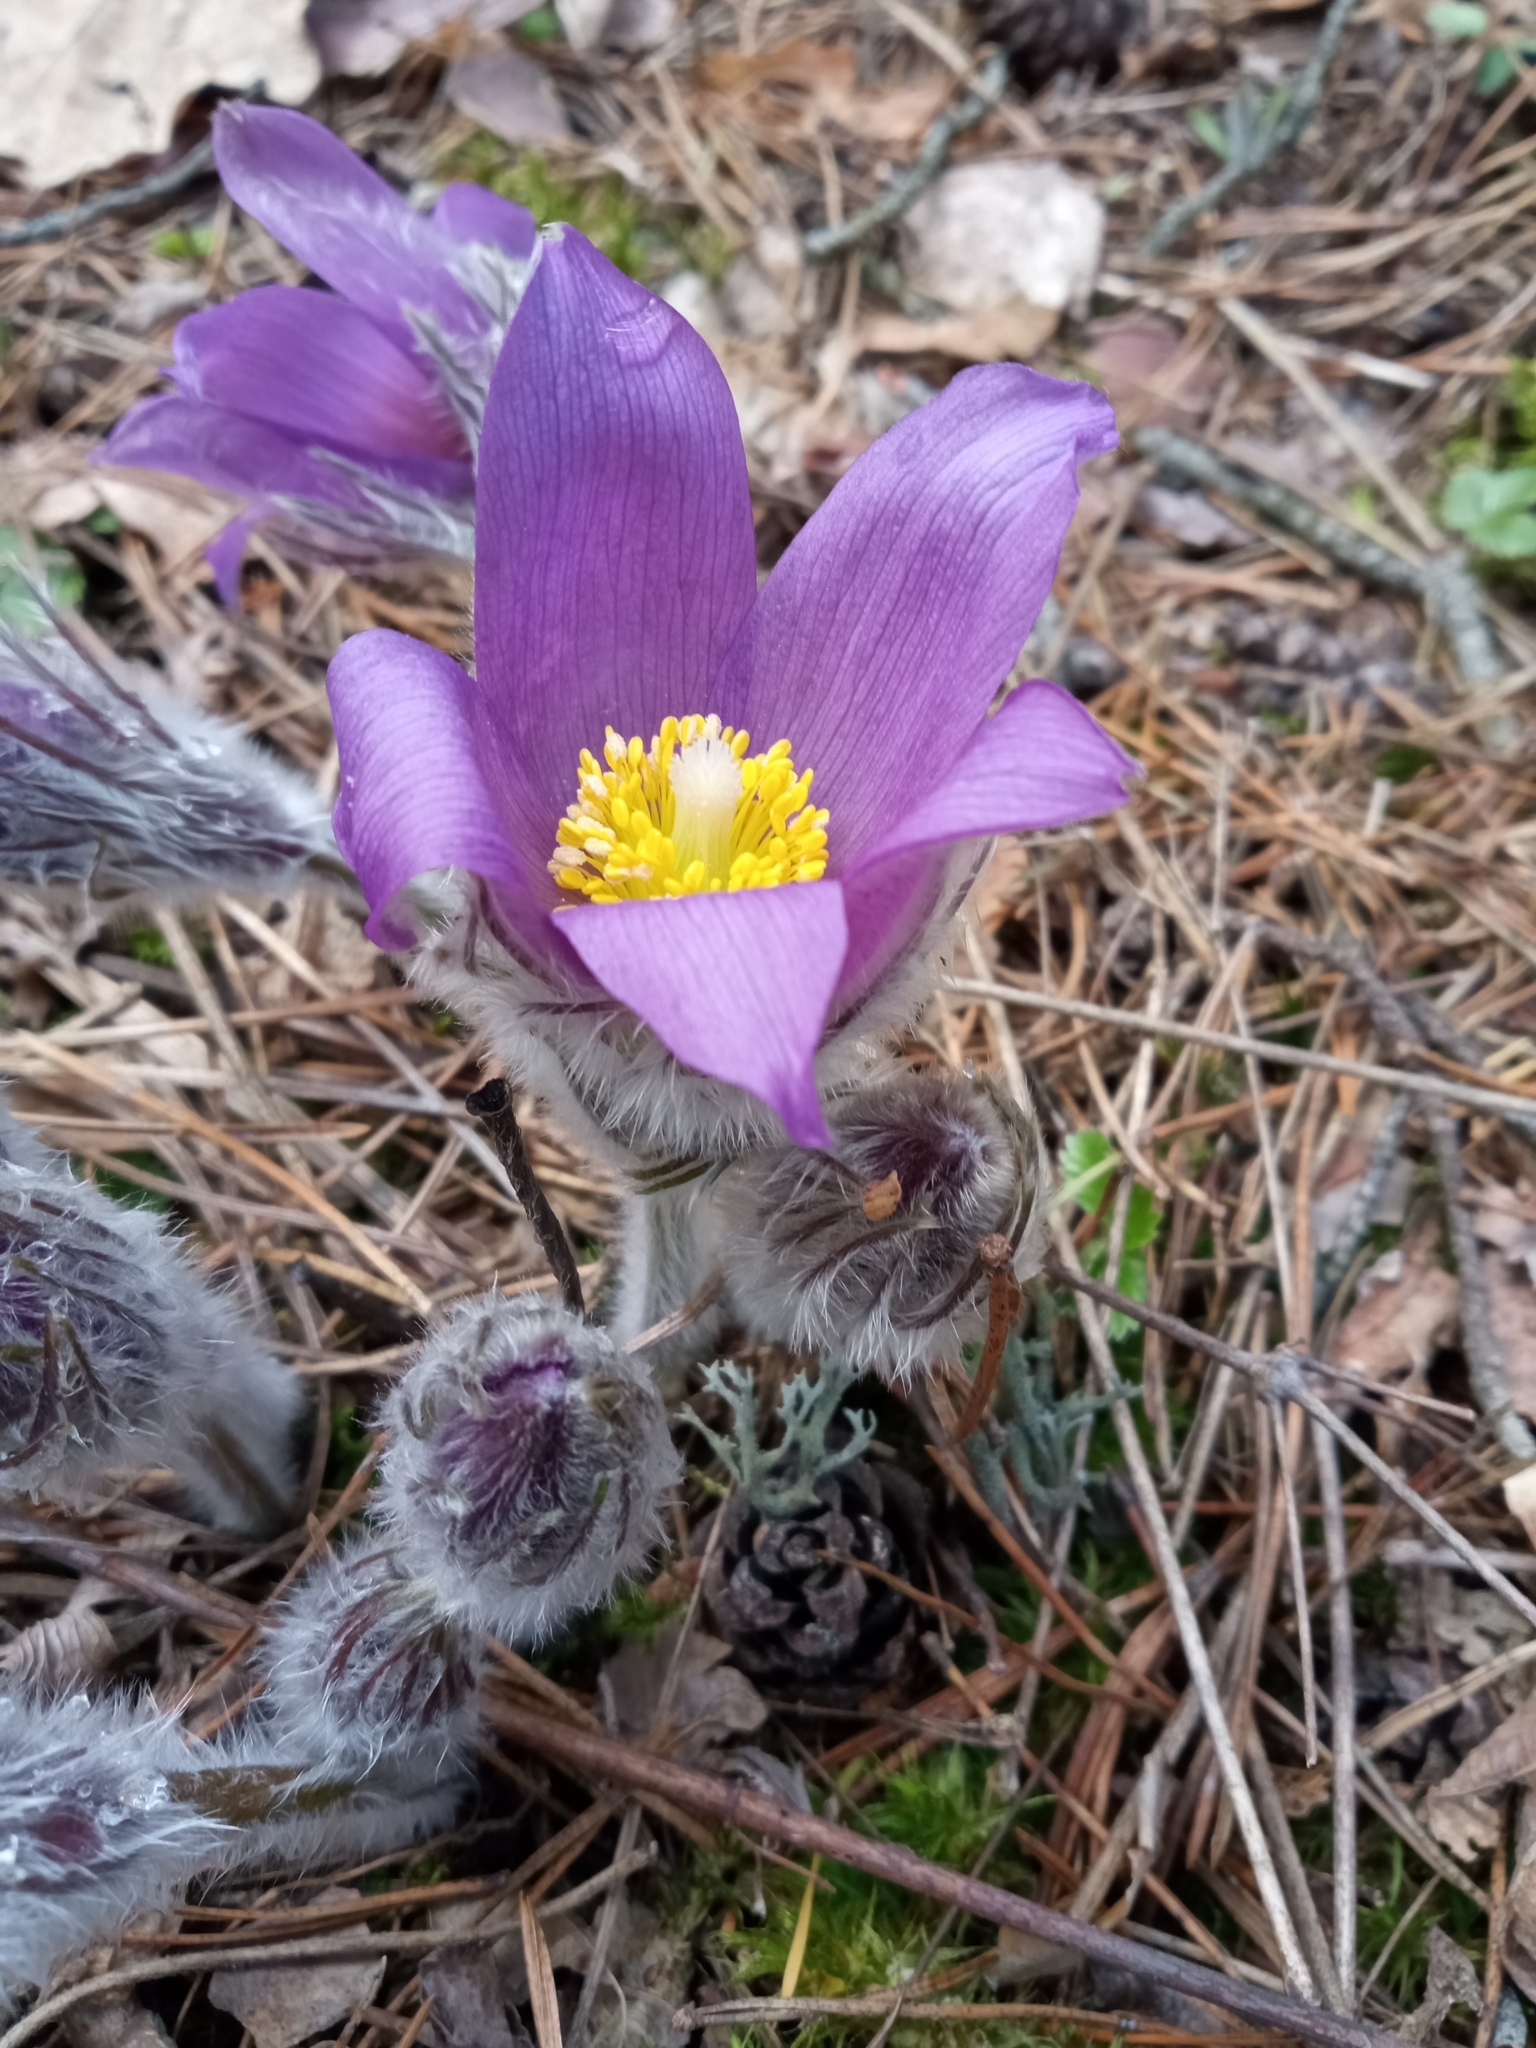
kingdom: Plantae
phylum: Tracheophyta
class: Magnoliopsida
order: Ranunculales
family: Ranunculaceae
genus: Pulsatilla
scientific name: Pulsatilla patens
